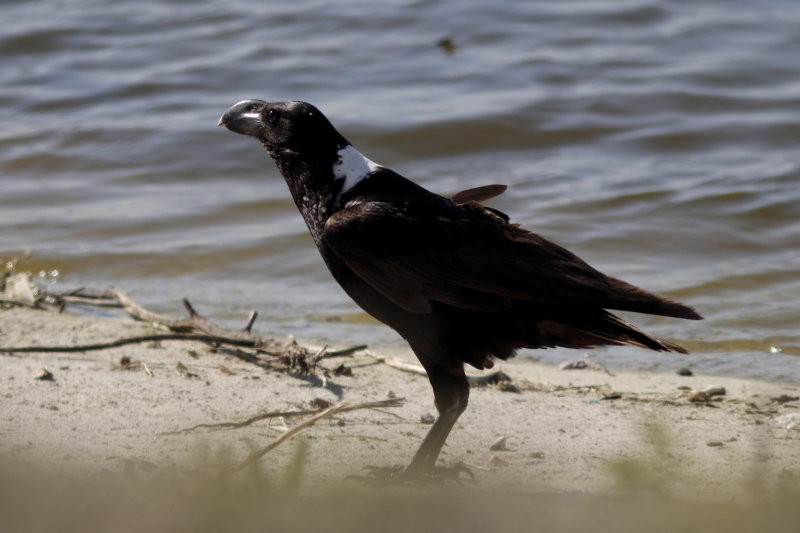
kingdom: Animalia
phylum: Chordata
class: Aves
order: Passeriformes
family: Corvidae
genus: Corvus
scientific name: Corvus albicollis
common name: White-necked raven
